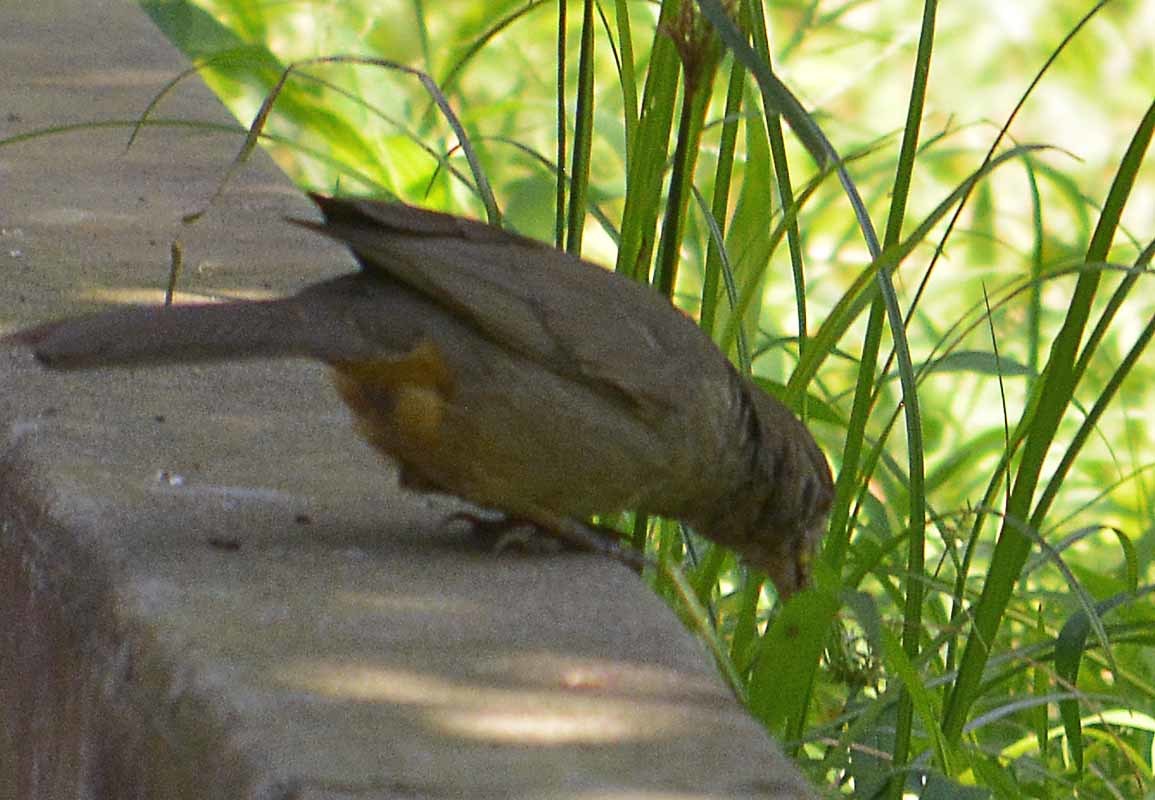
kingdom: Animalia
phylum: Chordata
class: Aves
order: Passeriformes
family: Passerellidae
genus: Melozone
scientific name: Melozone fusca
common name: Canyon towhee
